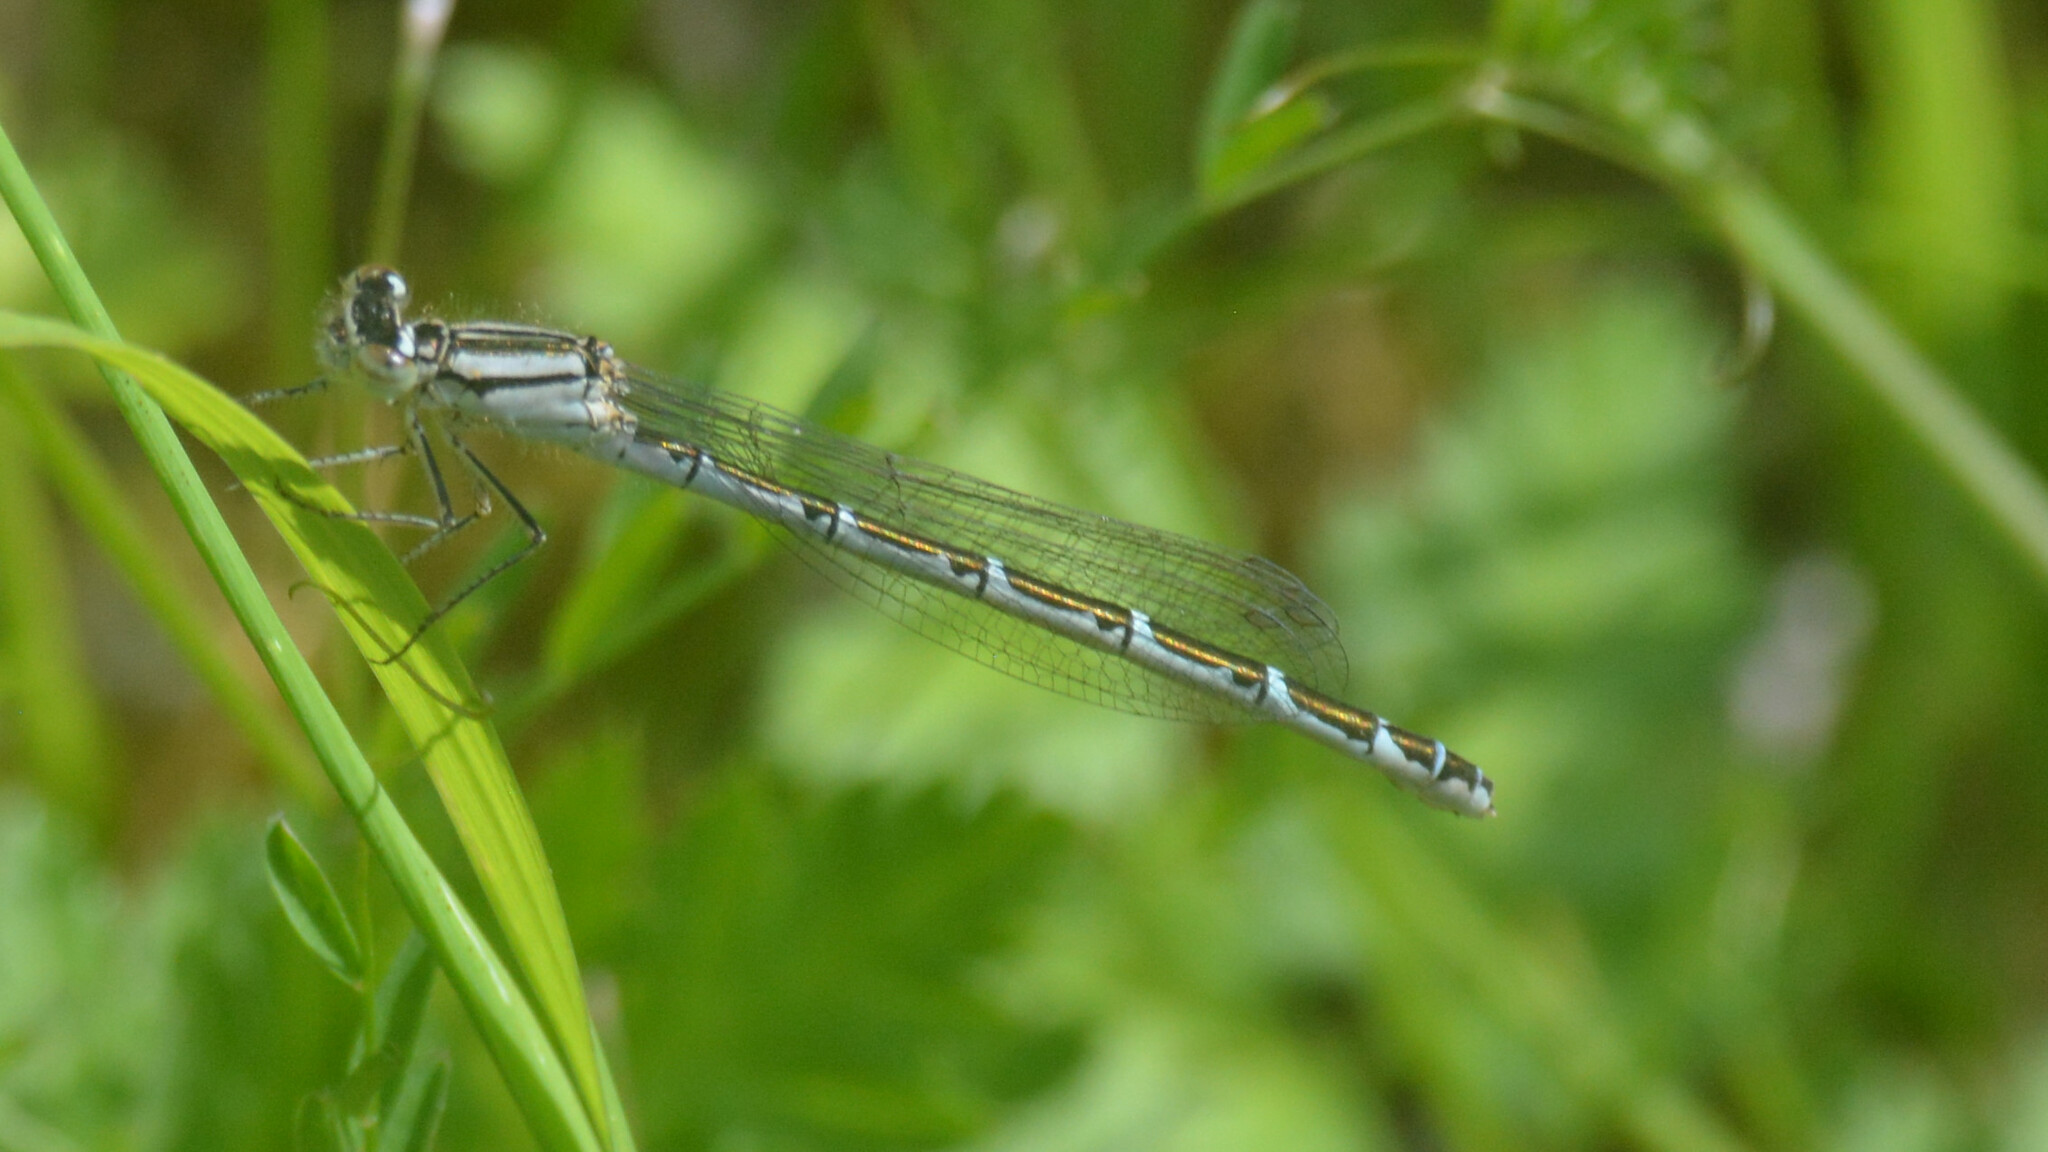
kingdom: Animalia
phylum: Arthropoda
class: Insecta
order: Odonata
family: Coenagrionidae
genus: Enallagma
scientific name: Enallagma cyathigerum
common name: Common blue damselfly
